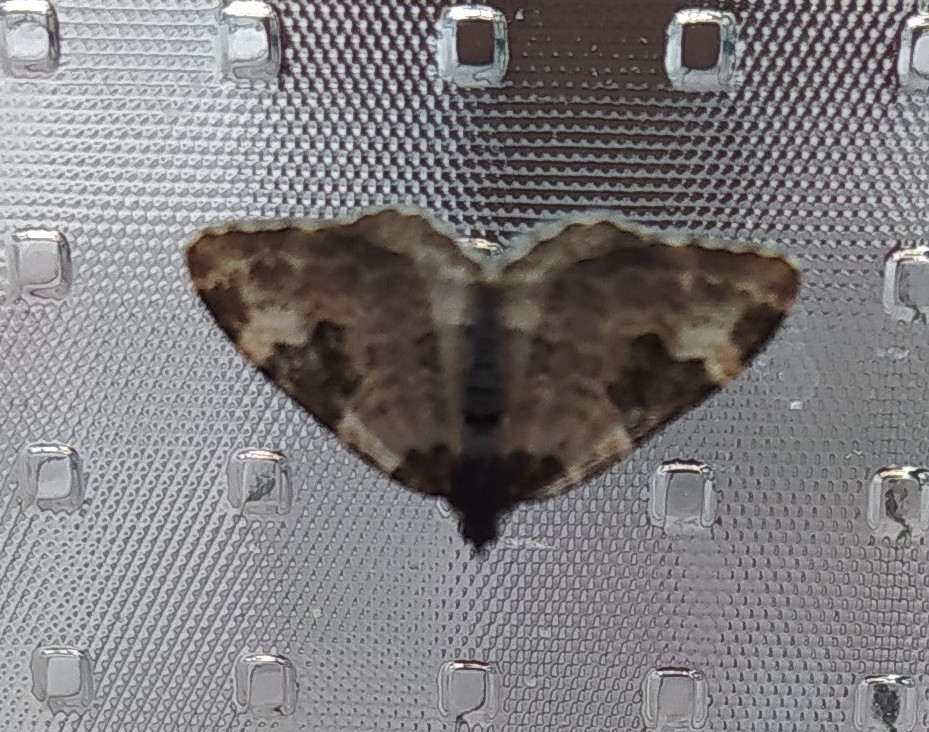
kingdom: Animalia
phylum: Arthropoda
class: Insecta
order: Lepidoptera
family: Geometridae
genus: Xanthorhoe
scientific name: Xanthorhoe fluctuata
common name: Garden carpet
